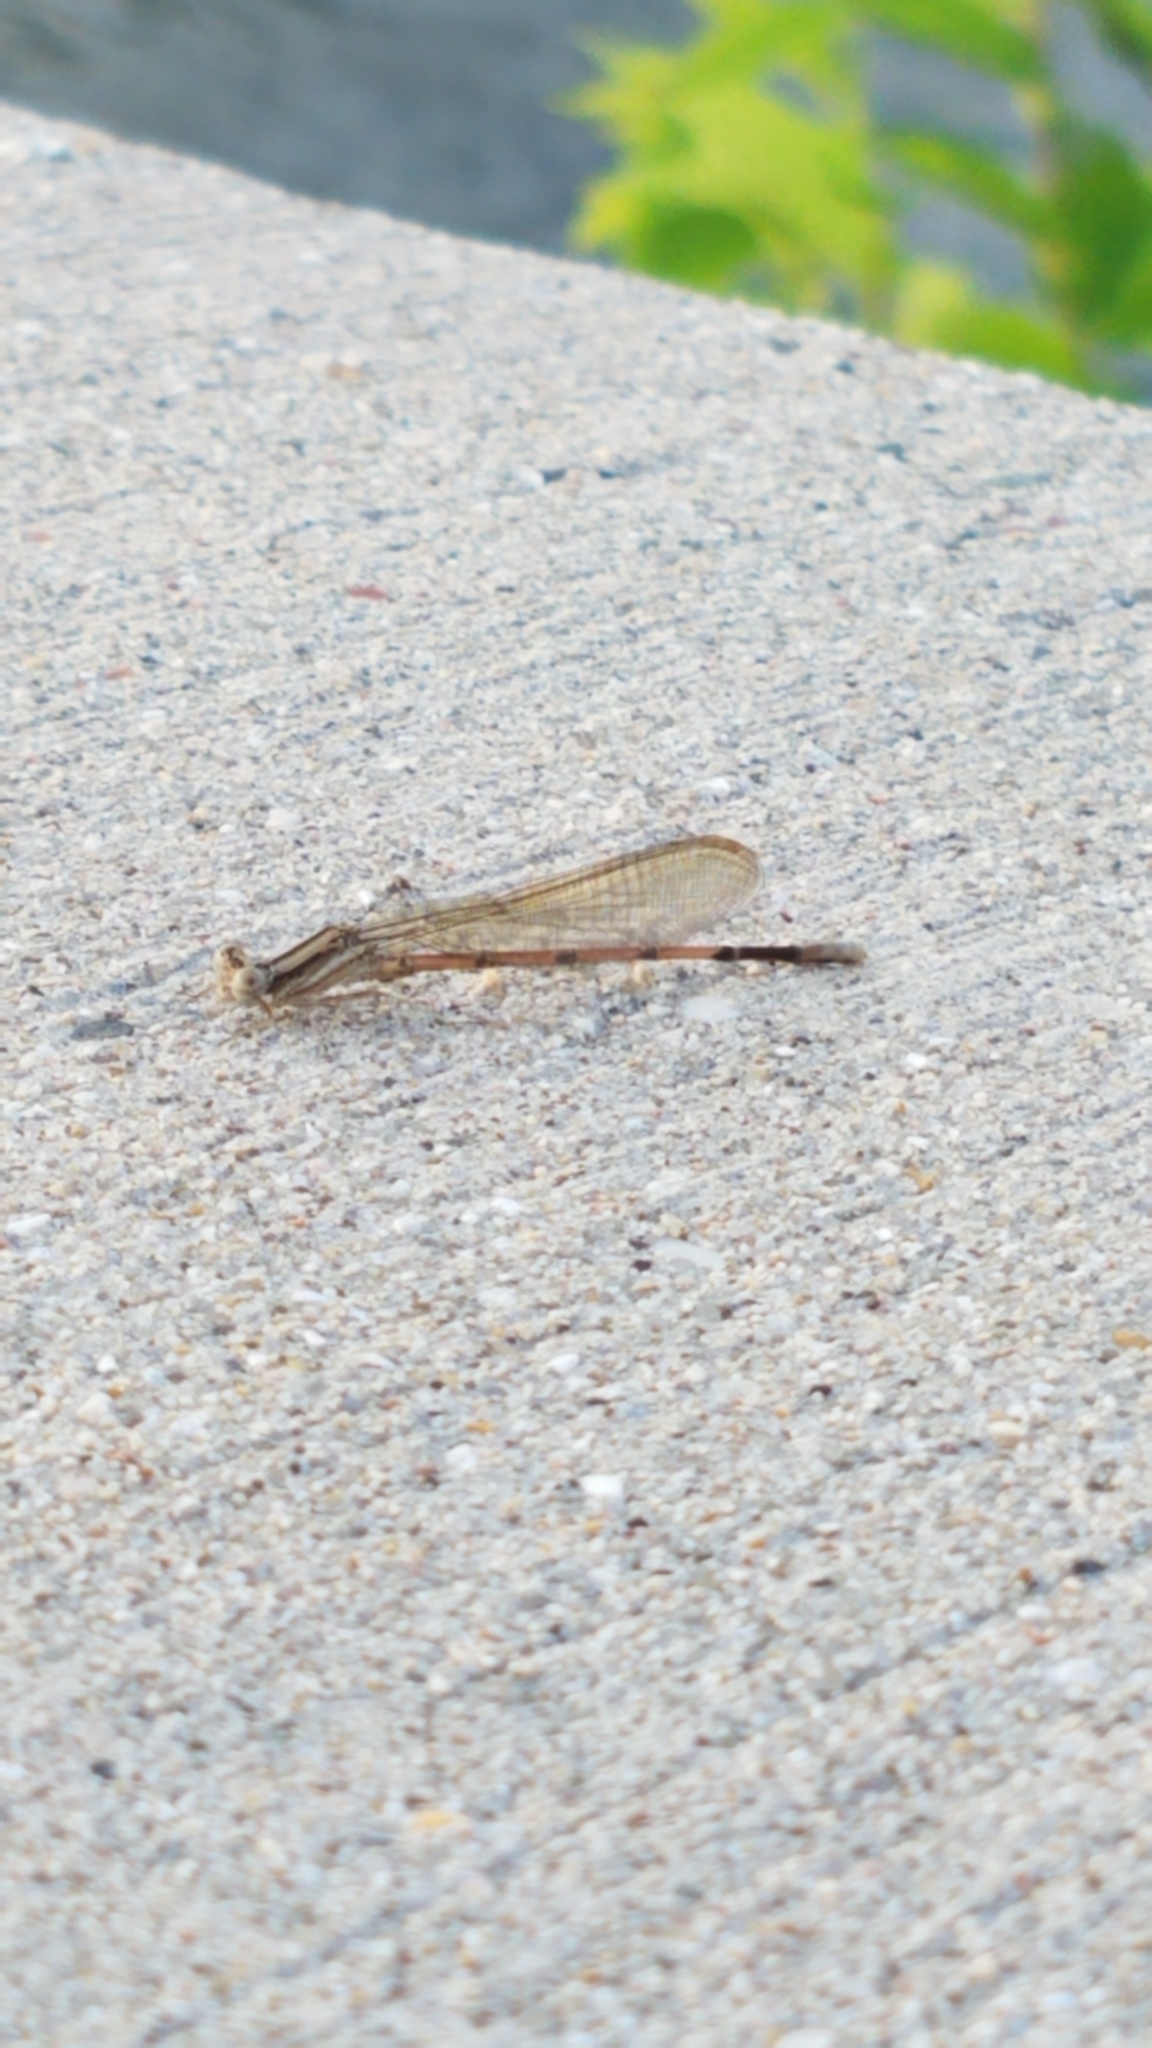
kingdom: Animalia
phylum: Arthropoda
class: Insecta
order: Odonata
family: Coenagrionidae
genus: Argia
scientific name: Argia fumipennis
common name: Variable dancer
